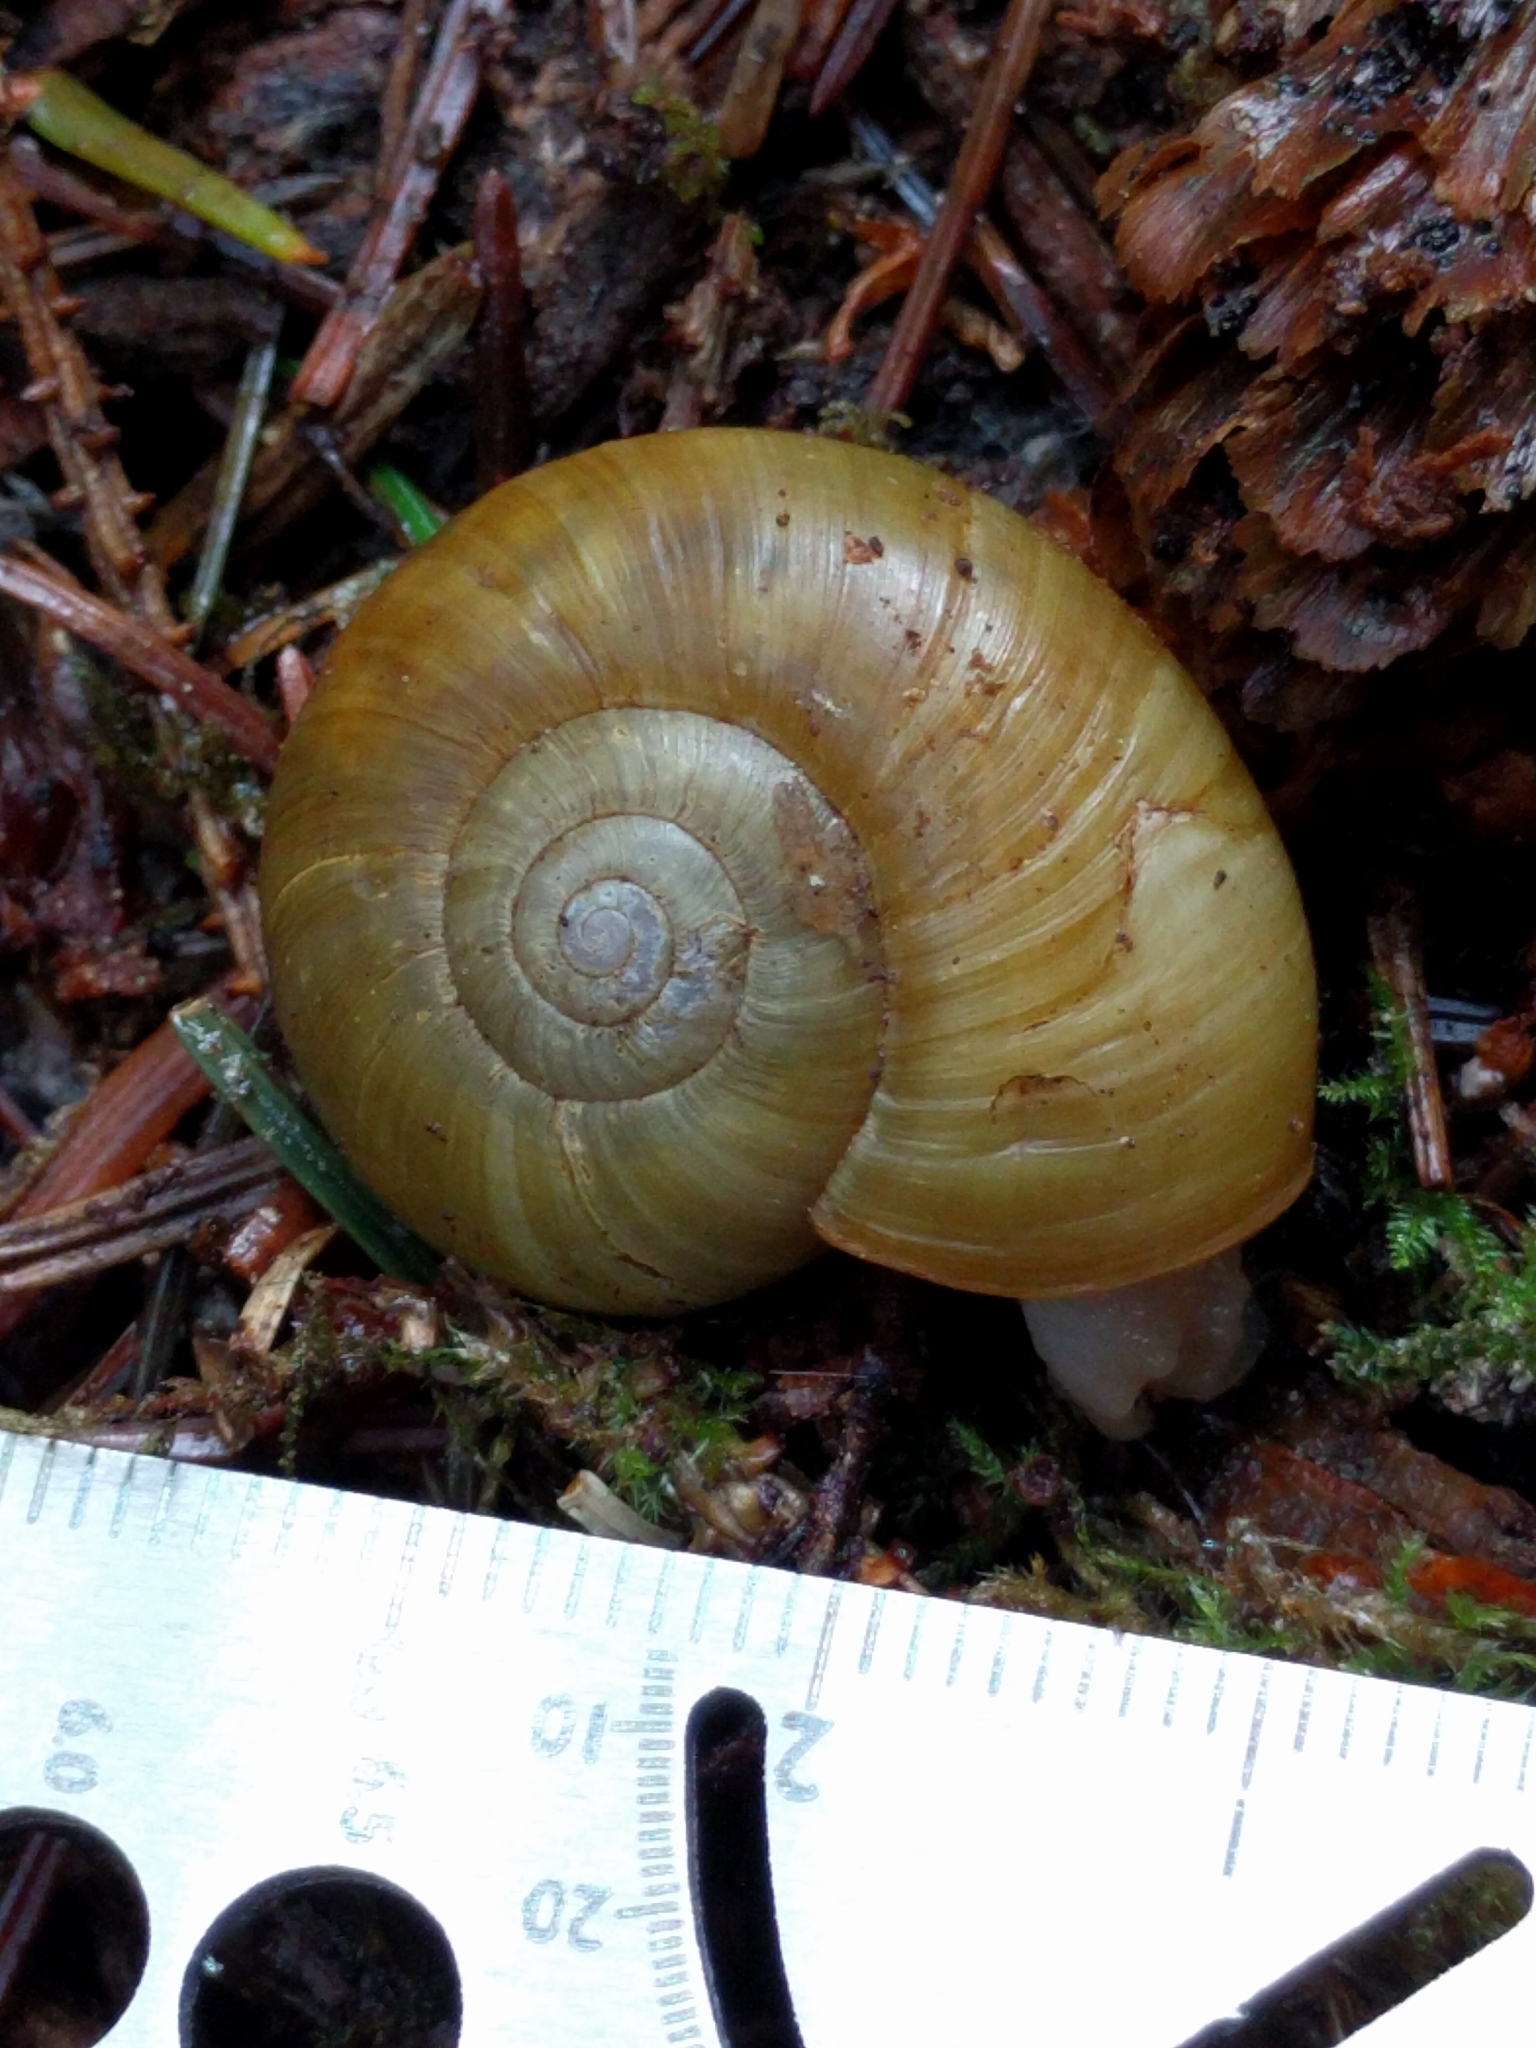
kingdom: Animalia
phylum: Mollusca
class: Gastropoda
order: Stylommatophora
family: Haplotrematidae
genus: Haplotrema
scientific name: Haplotrema vancouverense
